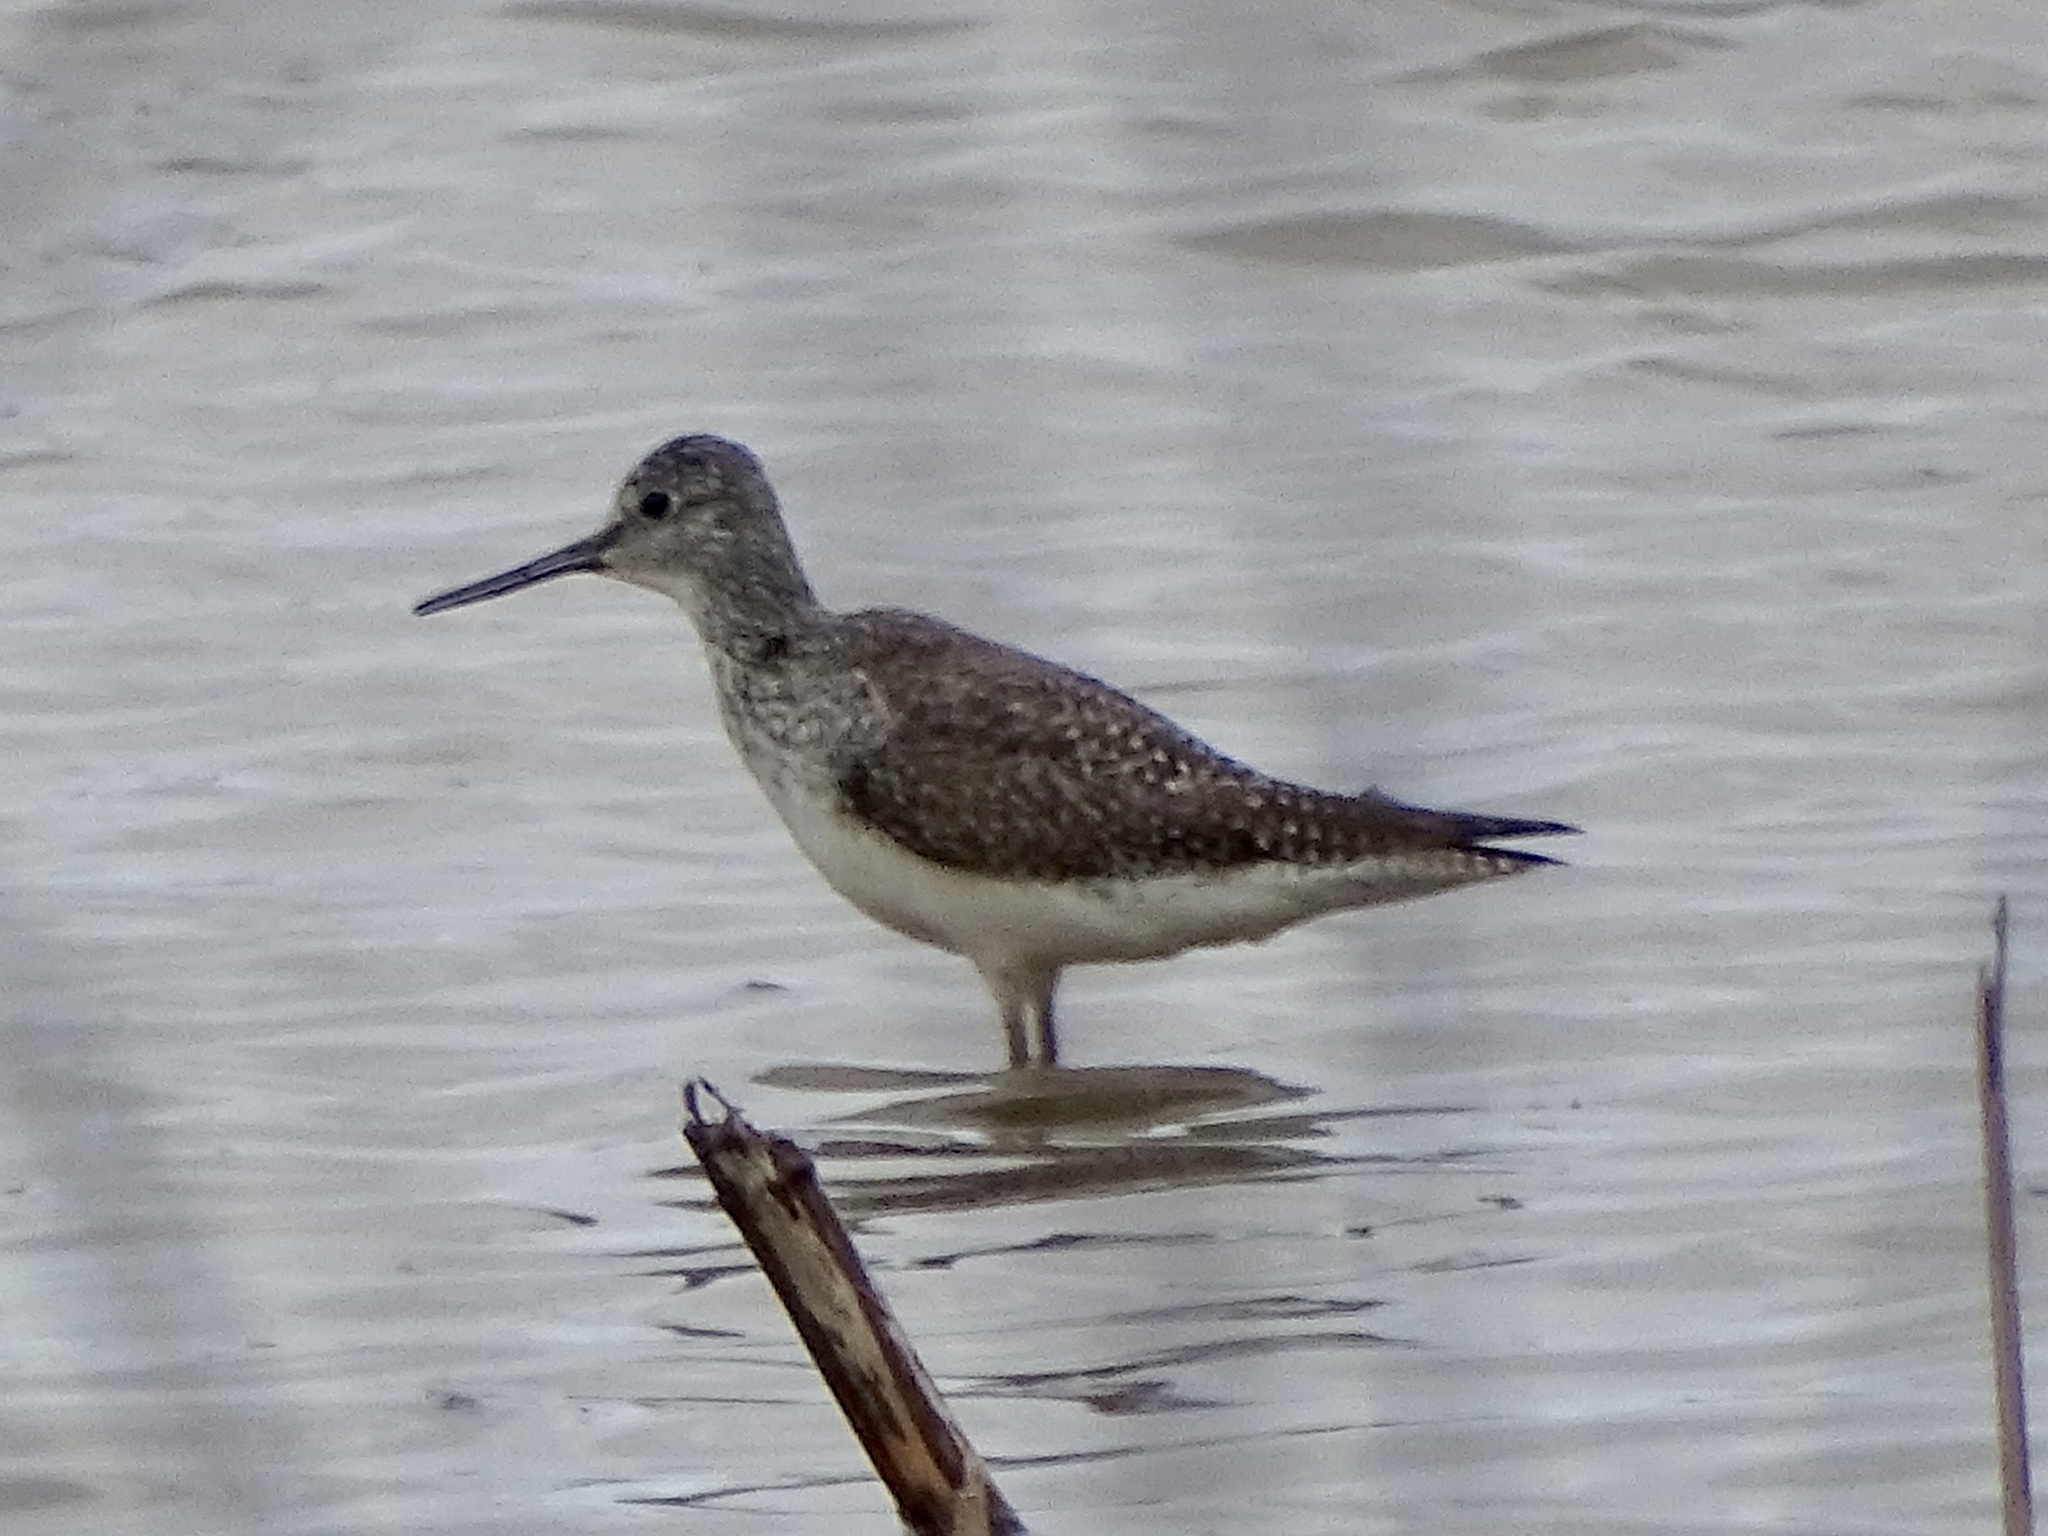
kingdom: Animalia
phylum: Chordata
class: Aves
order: Charadriiformes
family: Scolopacidae
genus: Tringa
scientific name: Tringa melanoleuca
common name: Greater yellowlegs
